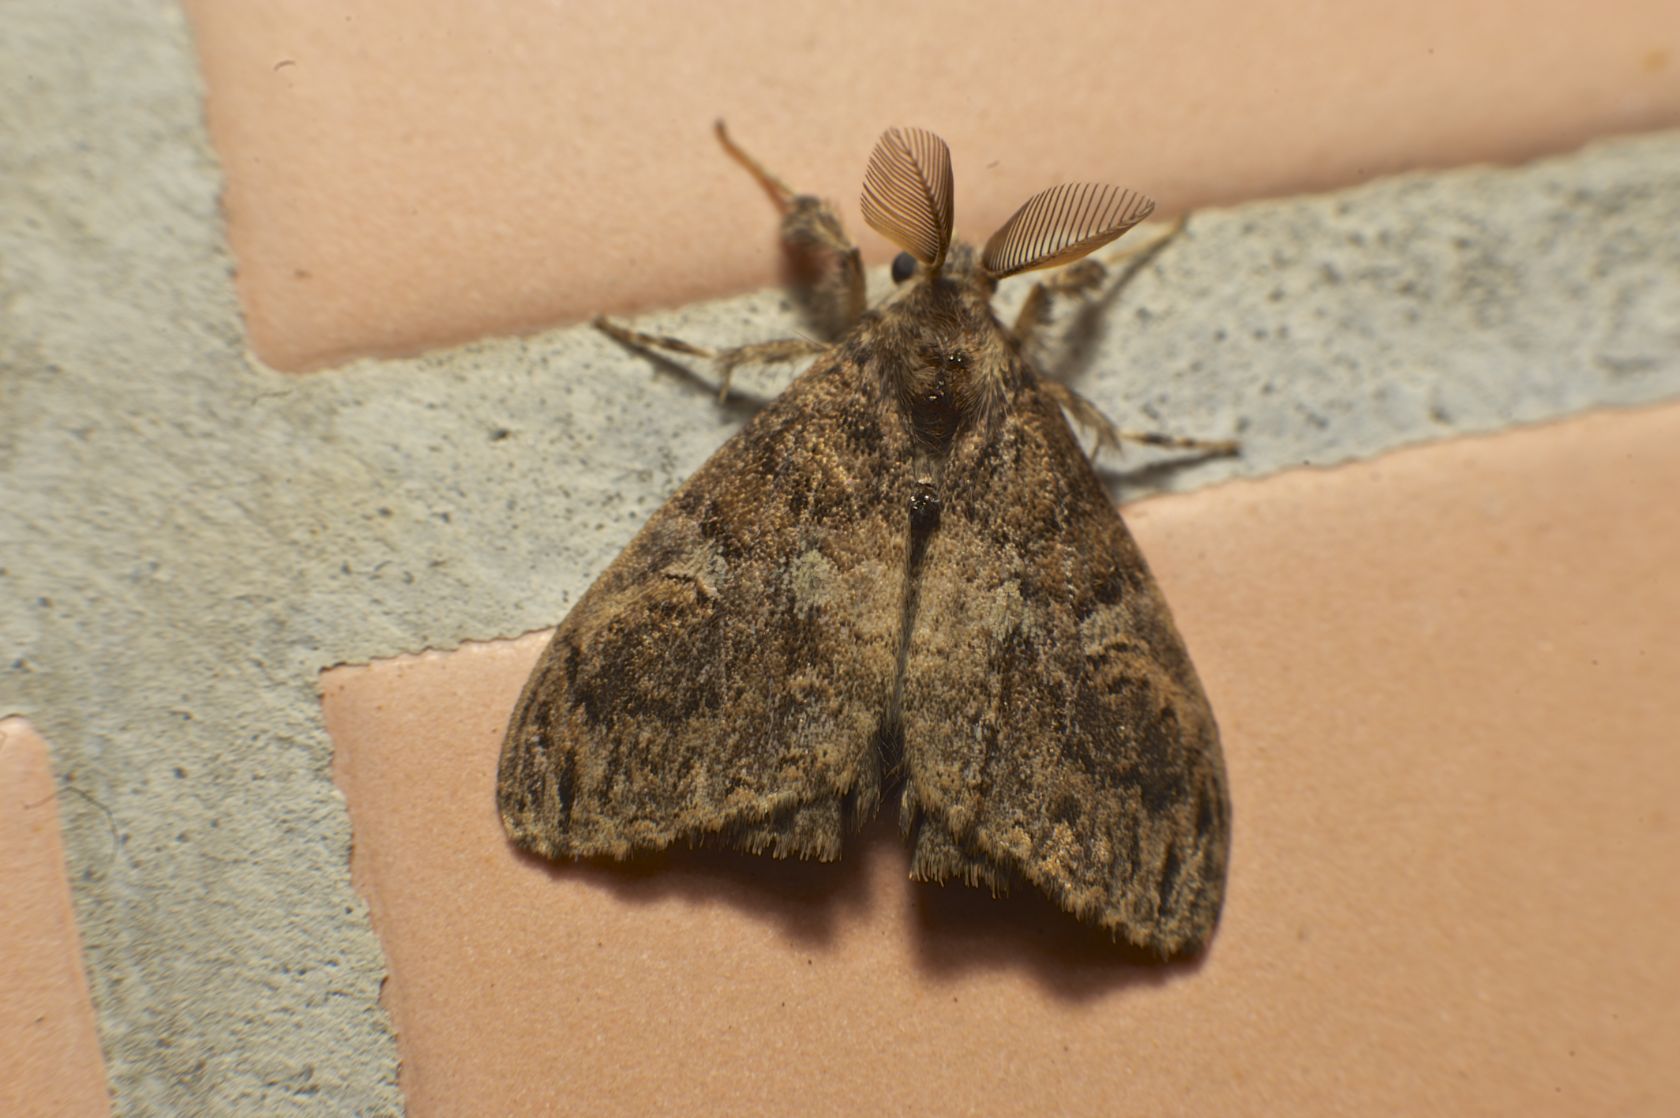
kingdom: Animalia
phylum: Arthropoda
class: Insecta
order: Lepidoptera
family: Erebidae
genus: Orgyia
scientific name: Orgyia postica
